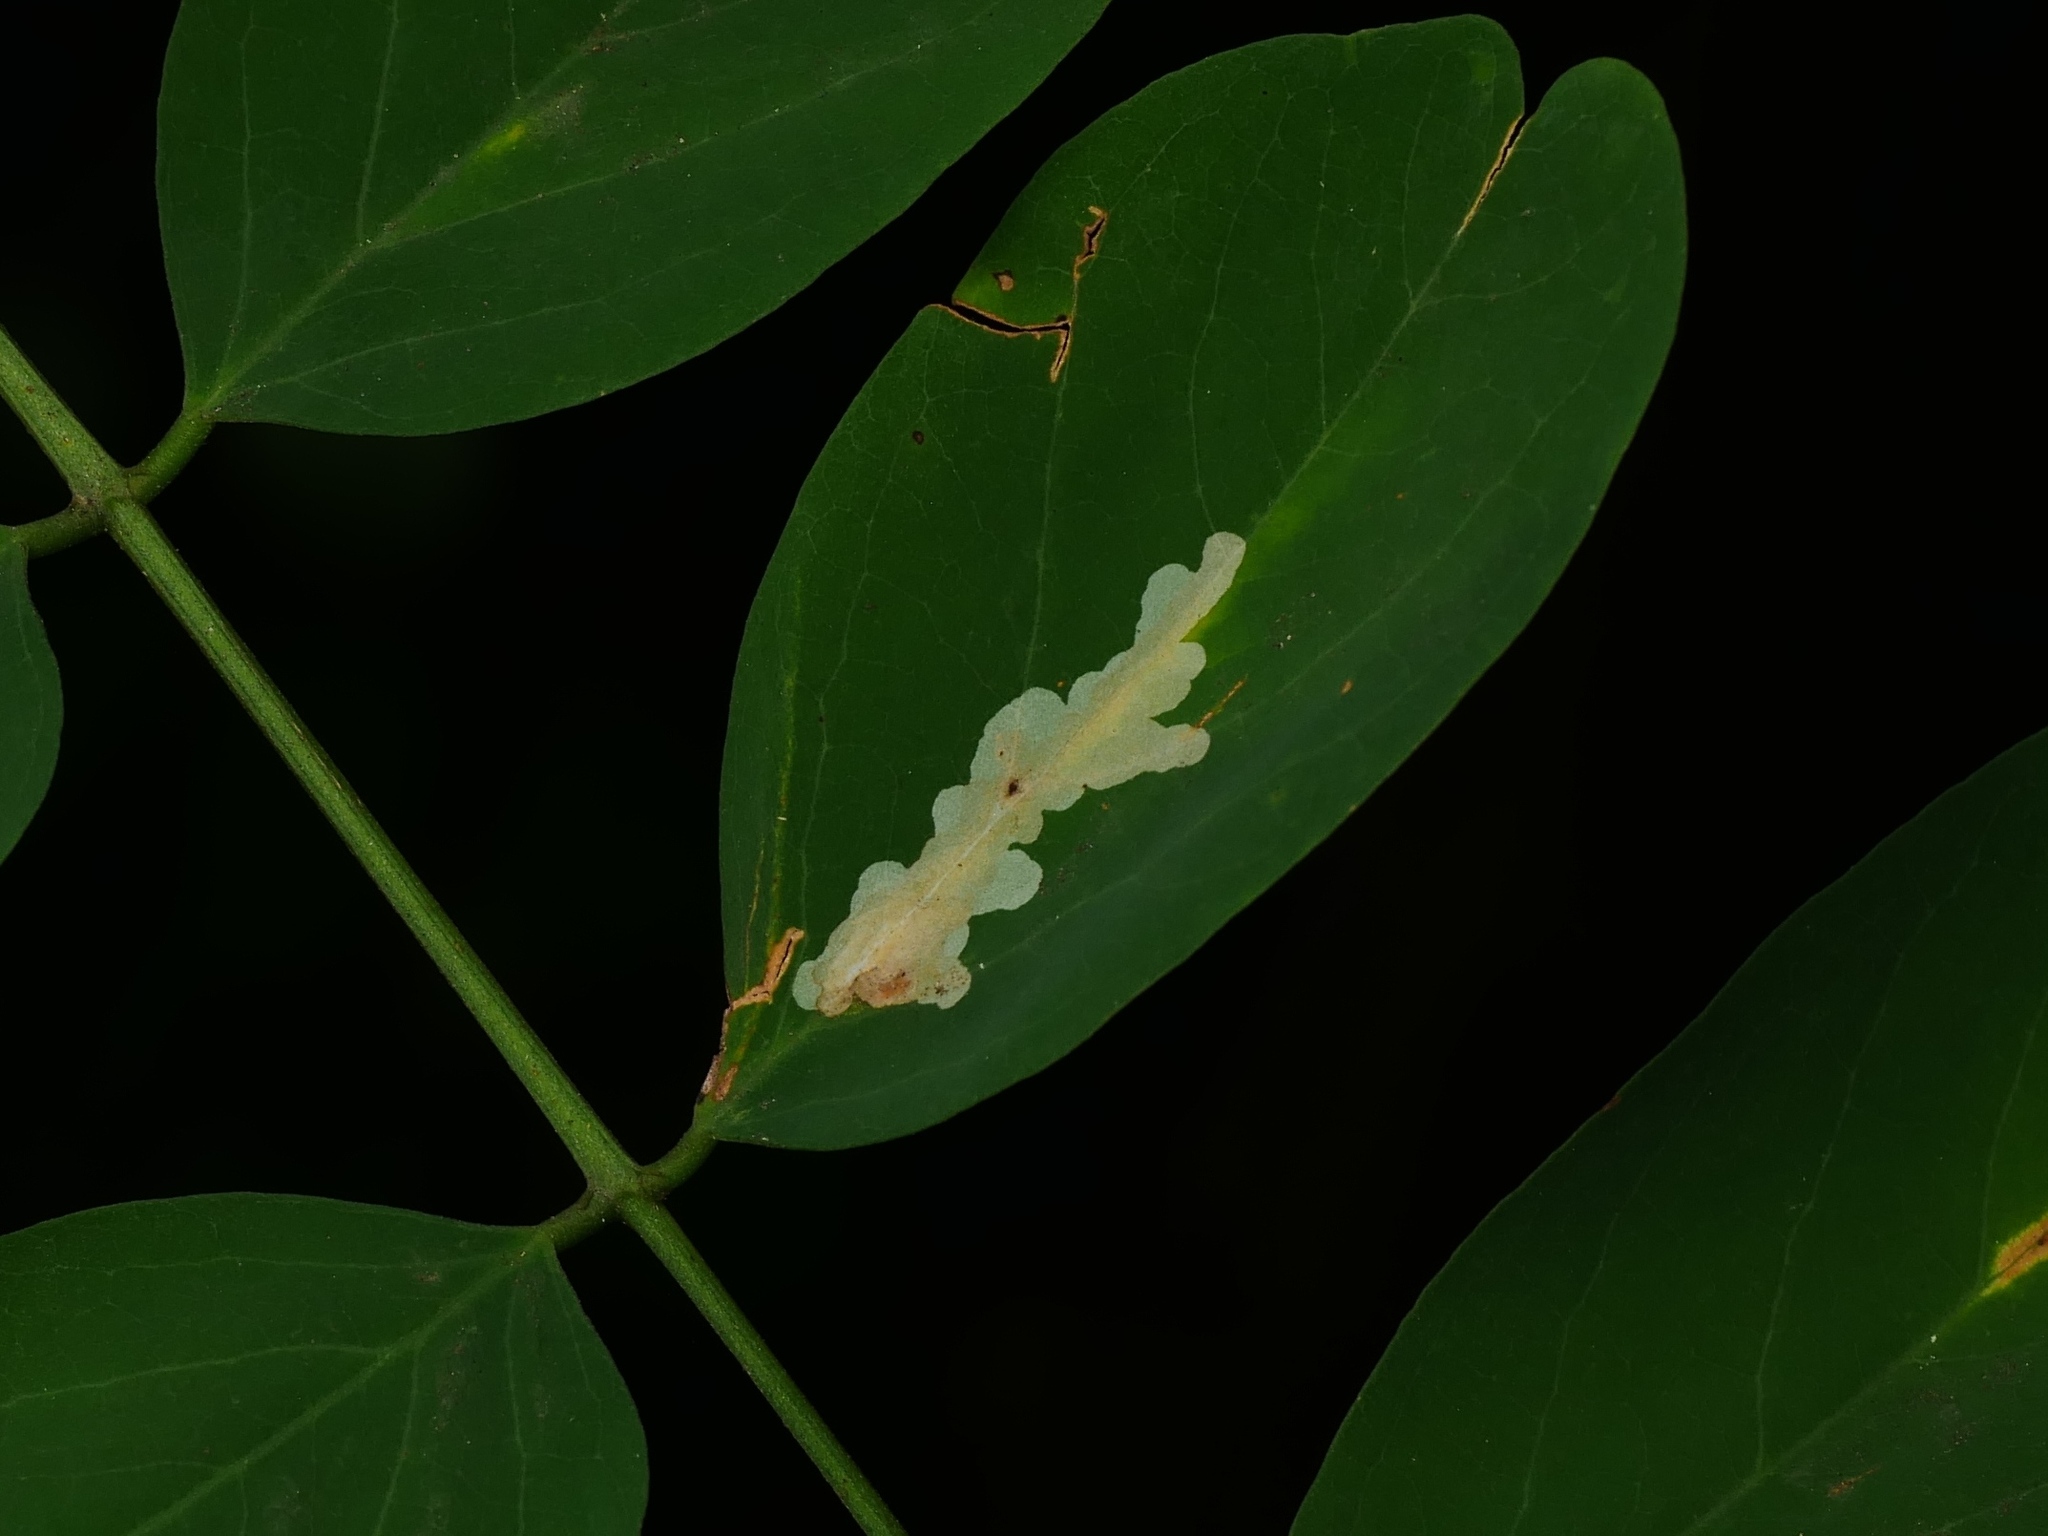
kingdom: Animalia
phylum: Arthropoda
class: Insecta
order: Lepidoptera
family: Gracillariidae
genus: Parectopa
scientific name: Parectopa robiniella
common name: Locust digitate leafminer
